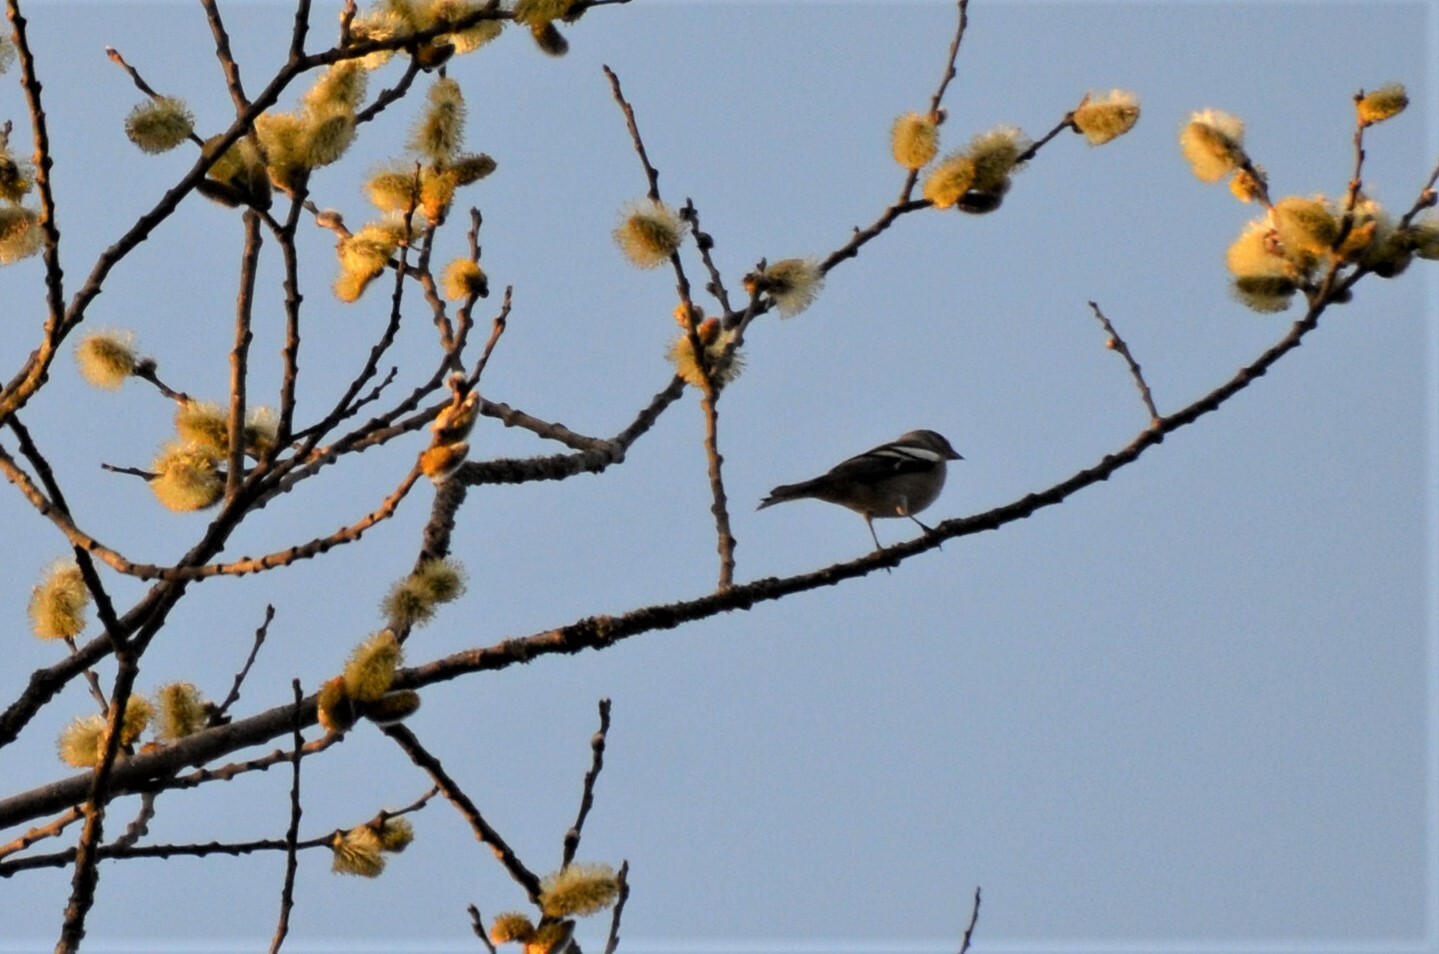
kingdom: Animalia
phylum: Chordata
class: Aves
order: Passeriformes
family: Fringillidae
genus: Fringilla
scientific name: Fringilla coelebs
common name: Common chaffinch
